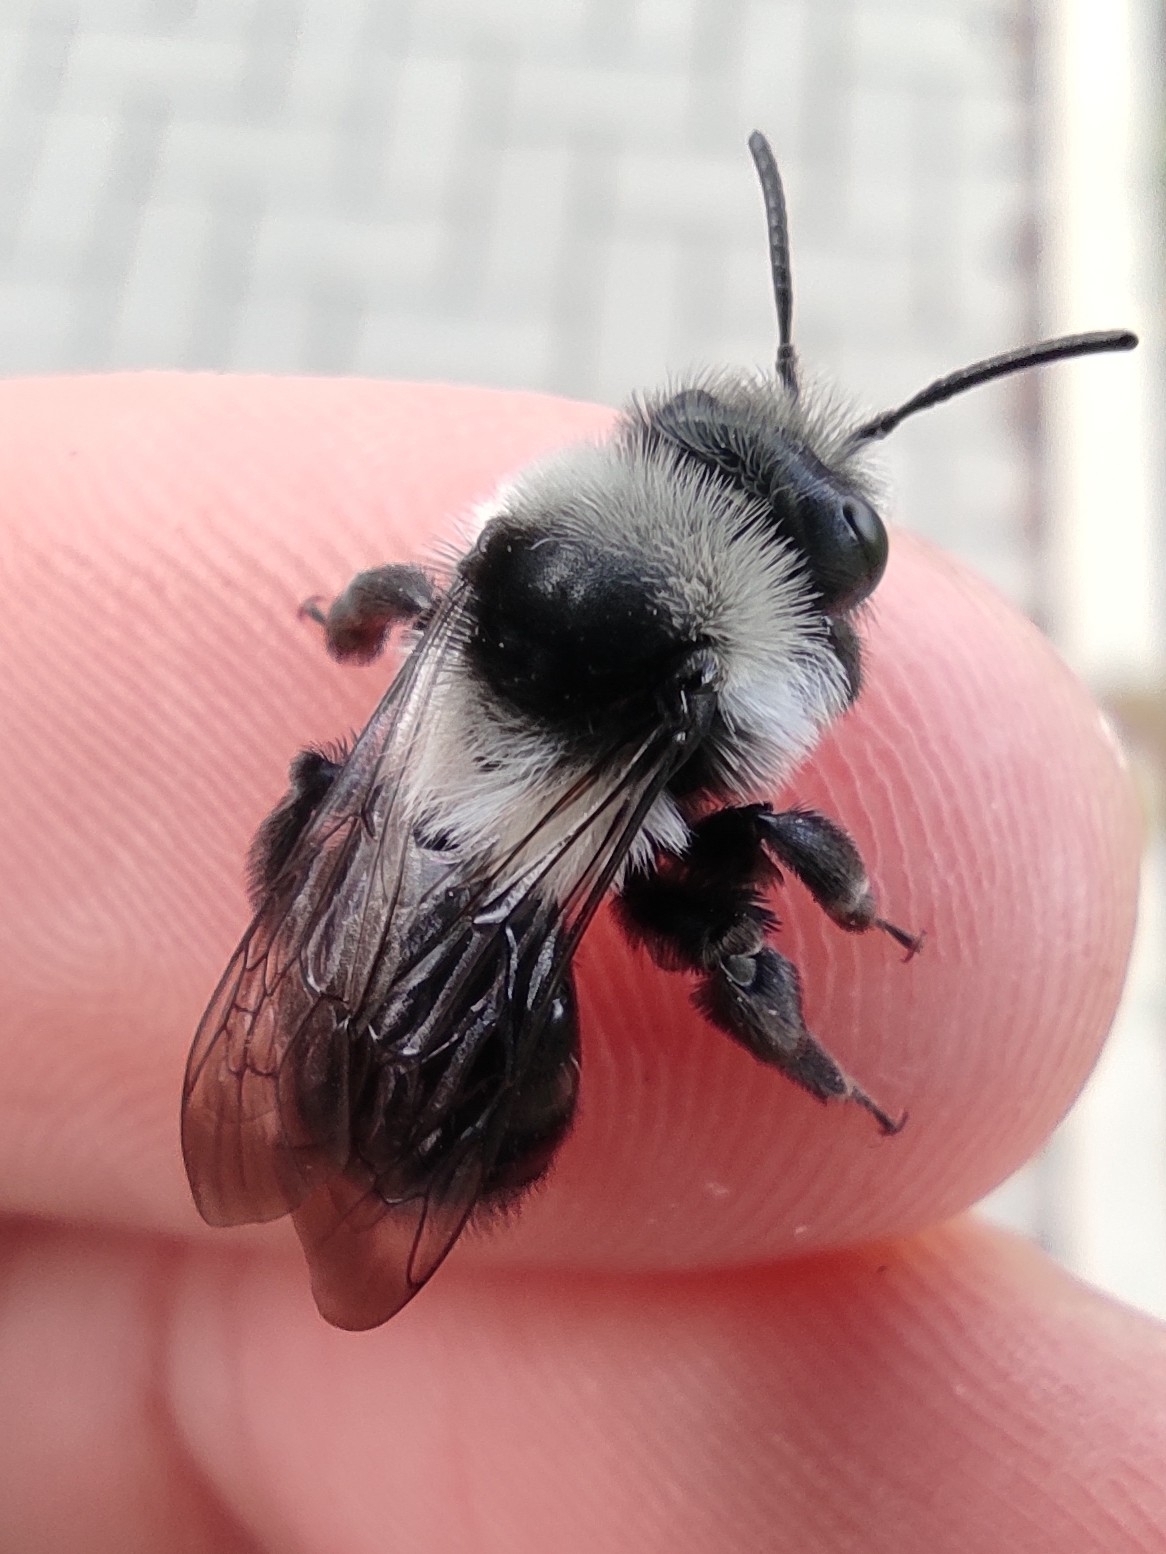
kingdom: Animalia
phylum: Arthropoda
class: Insecta
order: Hymenoptera
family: Andrenidae
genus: Andrena
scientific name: Andrena cineraria
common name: Ashy mining bee
